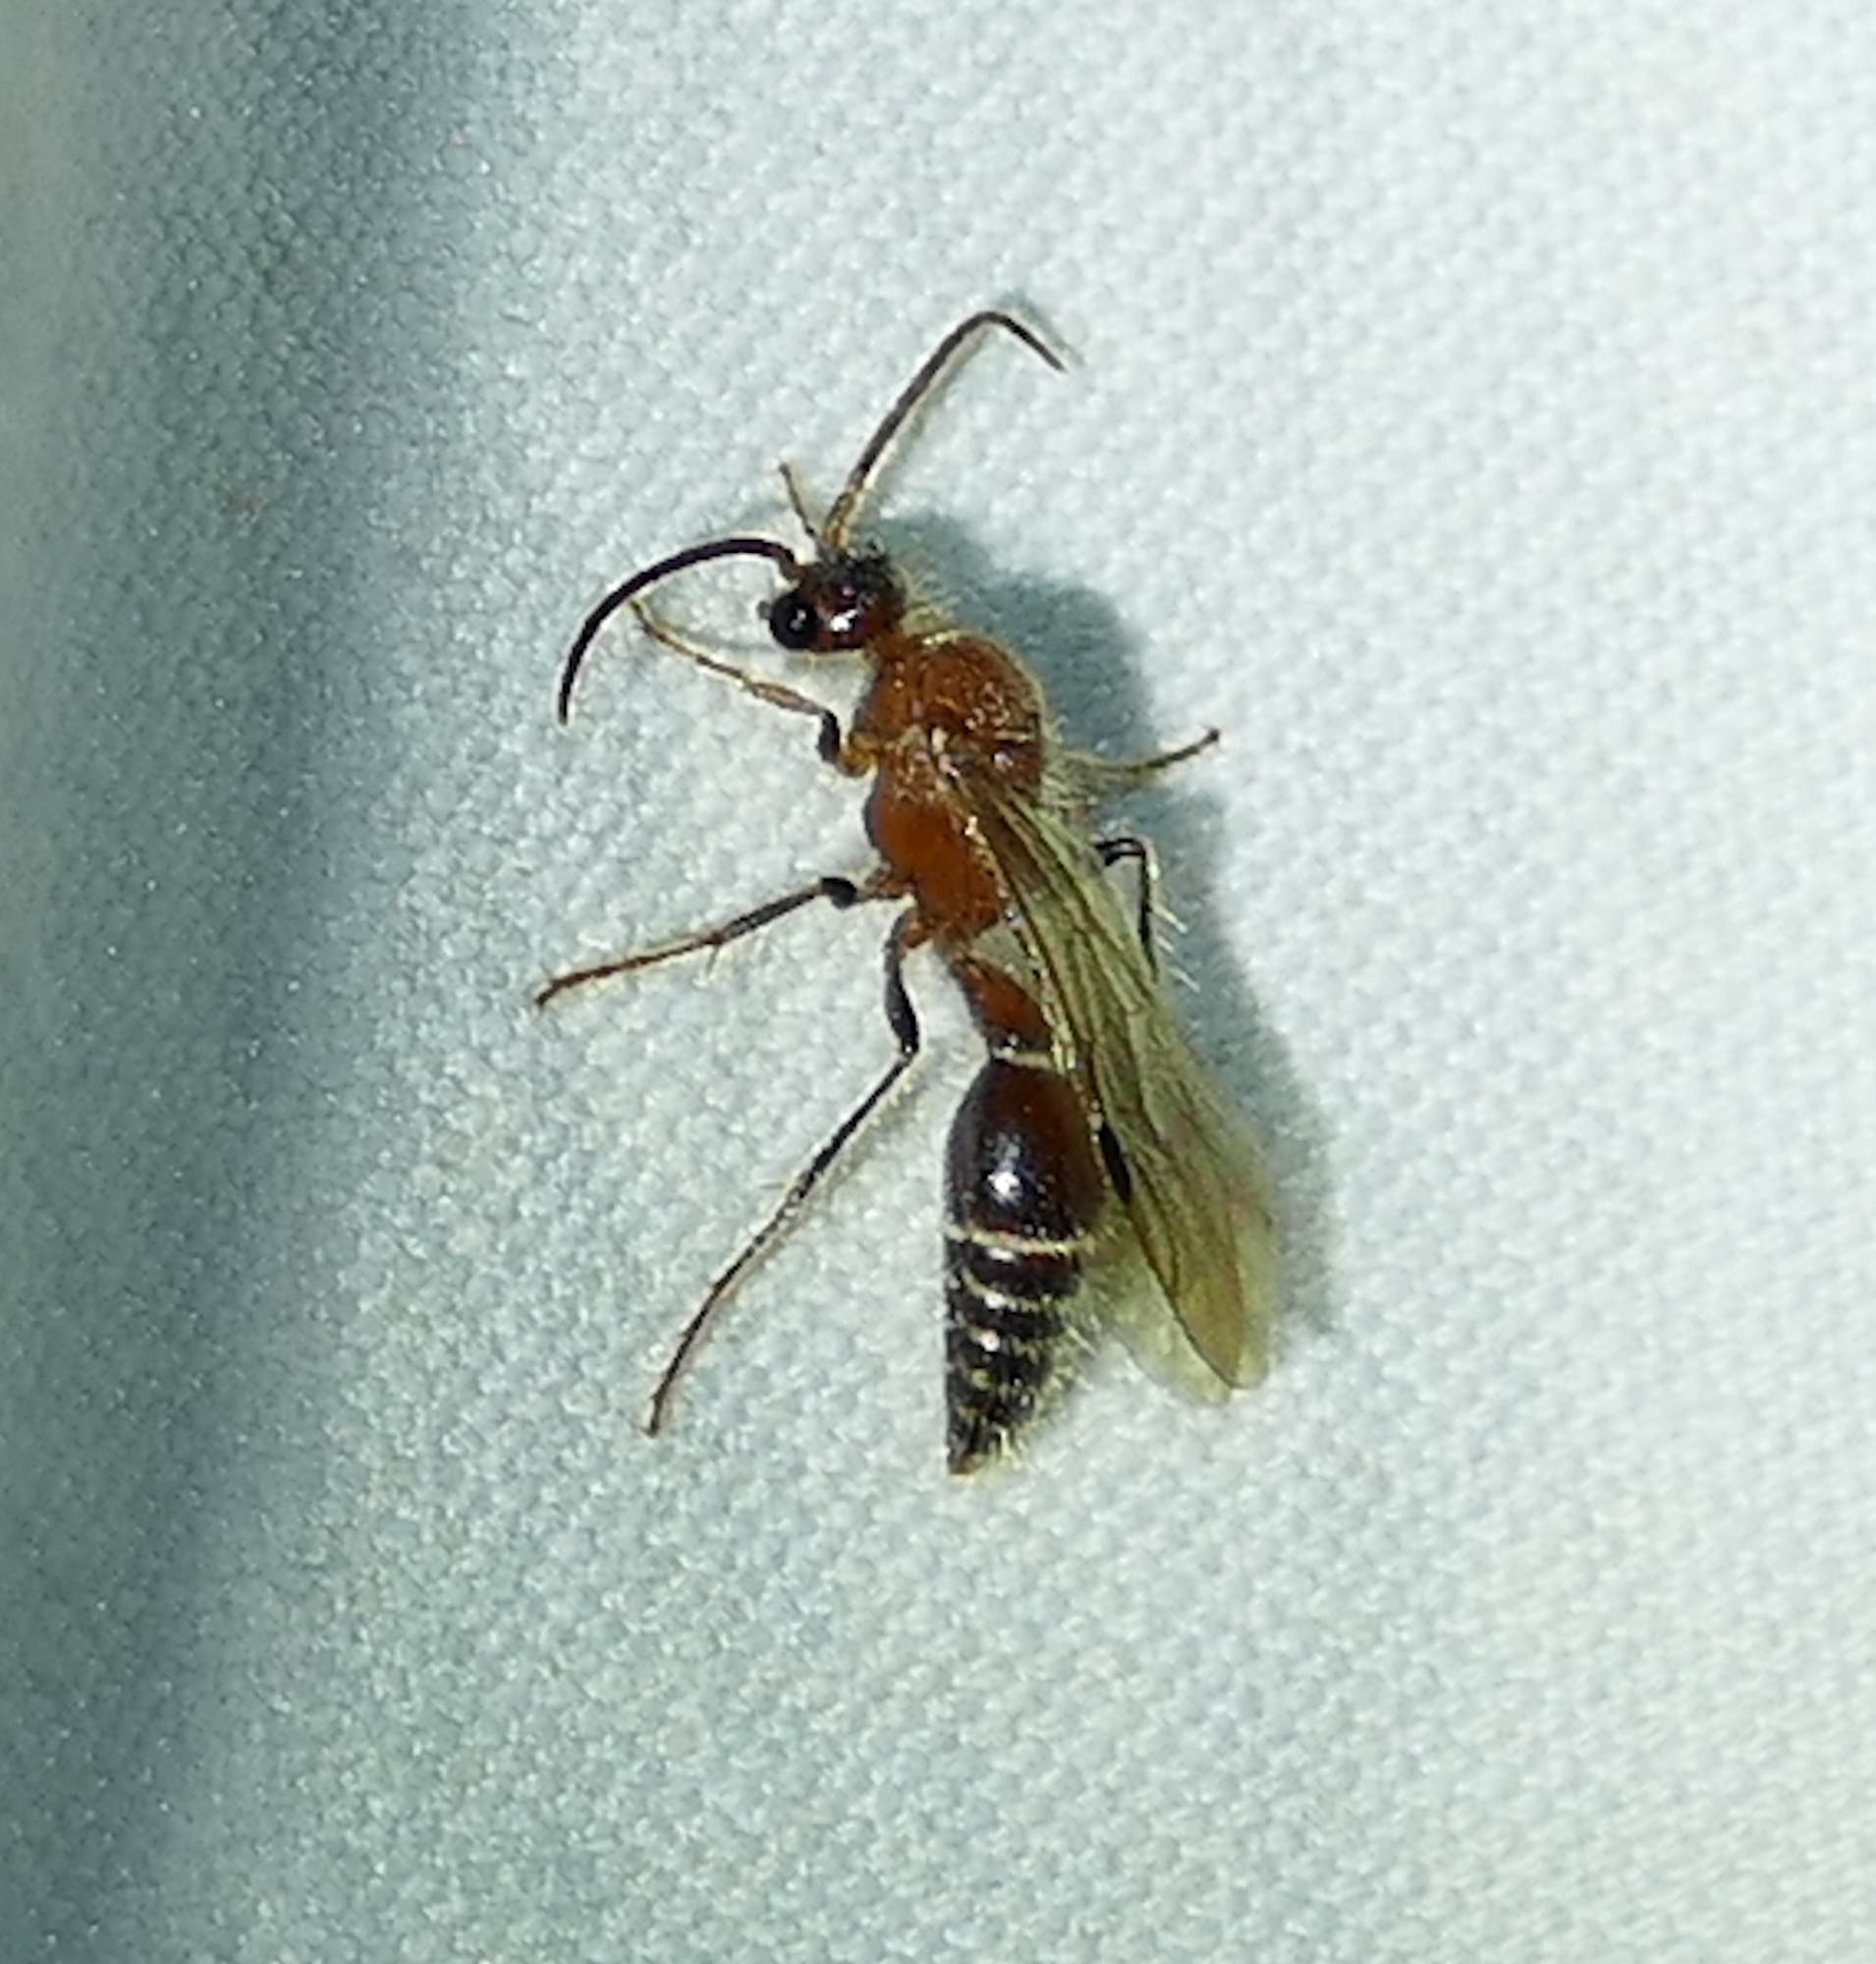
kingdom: Animalia
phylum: Arthropoda
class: Insecta
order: Hymenoptera
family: Mutillidae
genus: Odontophotopsis
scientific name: Odontophotopsis
